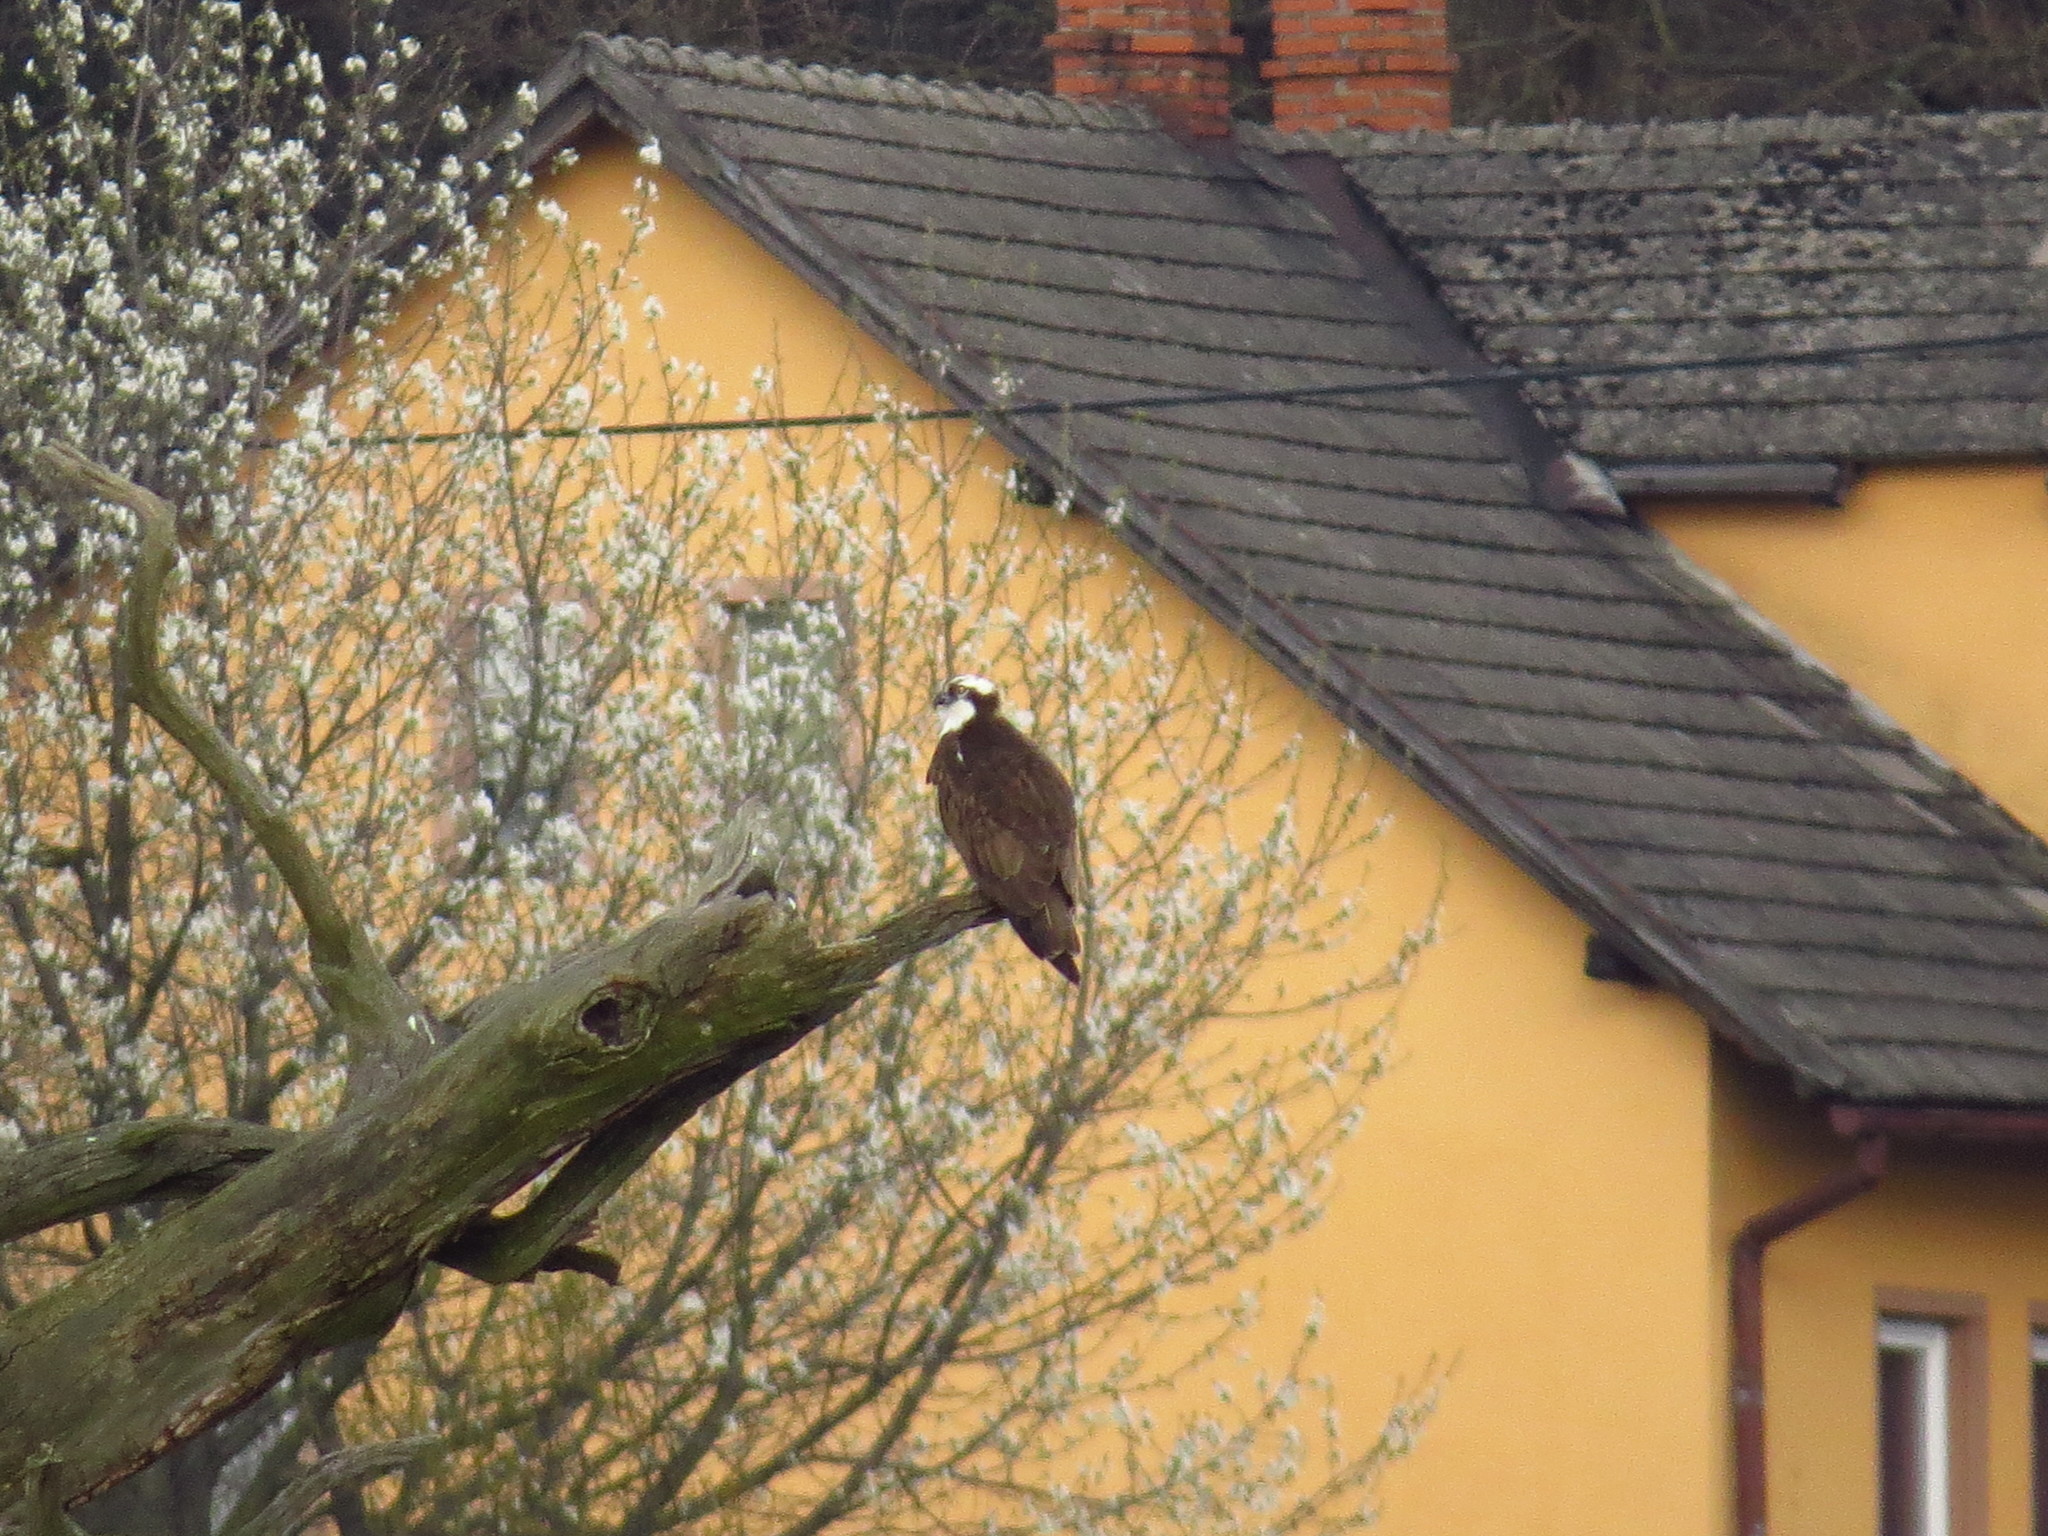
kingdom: Animalia
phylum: Chordata
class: Aves
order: Accipitriformes
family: Pandionidae
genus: Pandion
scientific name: Pandion haliaetus
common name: Osprey
